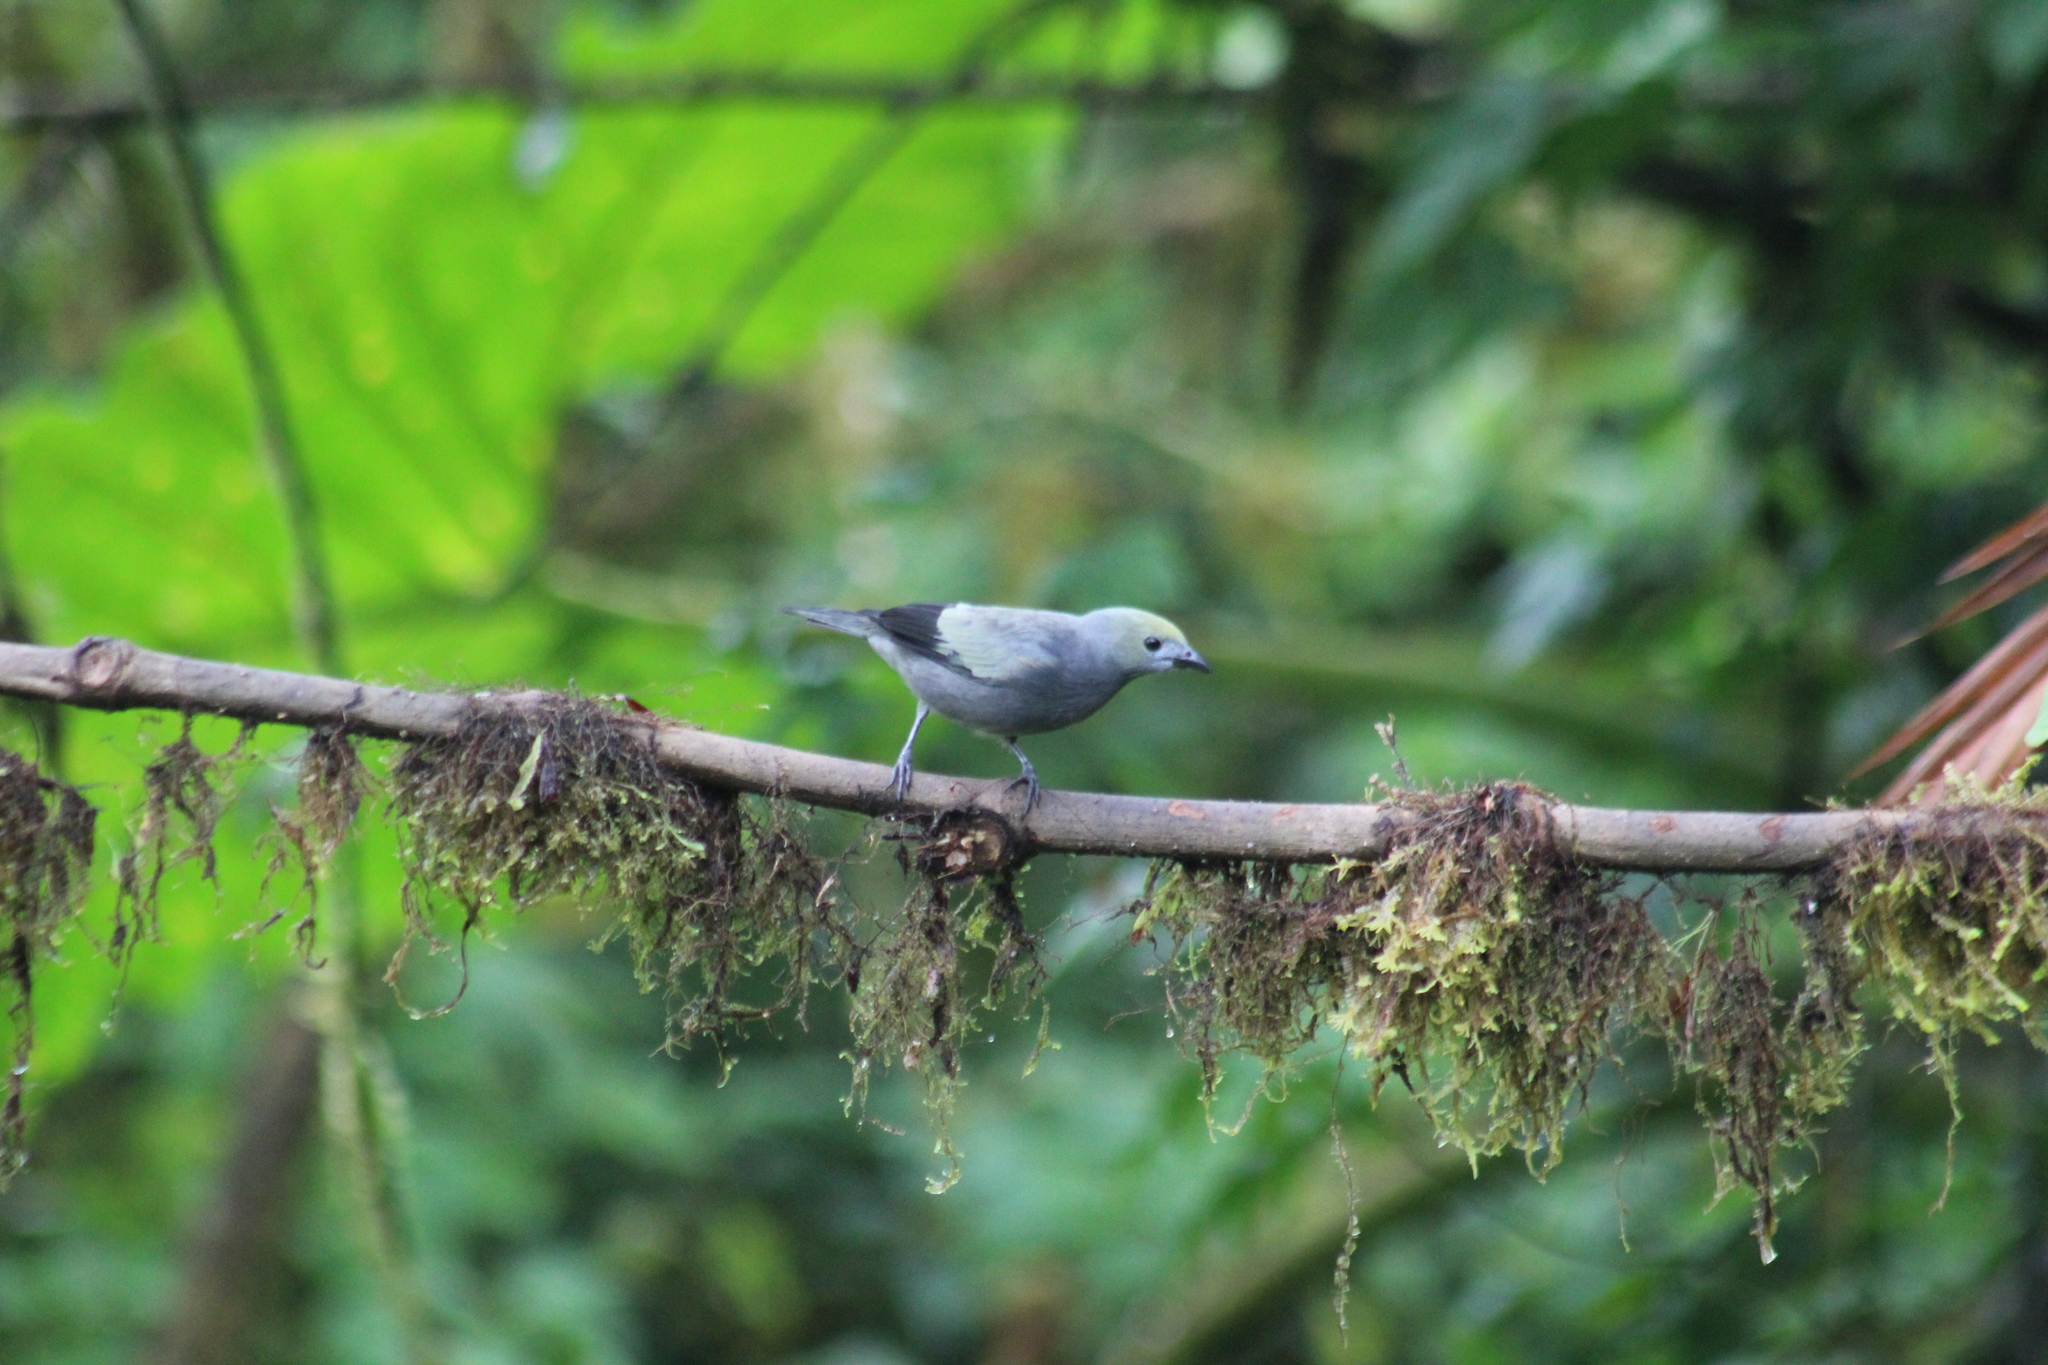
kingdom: Animalia
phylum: Chordata
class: Aves
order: Passeriformes
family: Thraupidae
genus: Thraupis
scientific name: Thraupis palmarum
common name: Palm tanager
